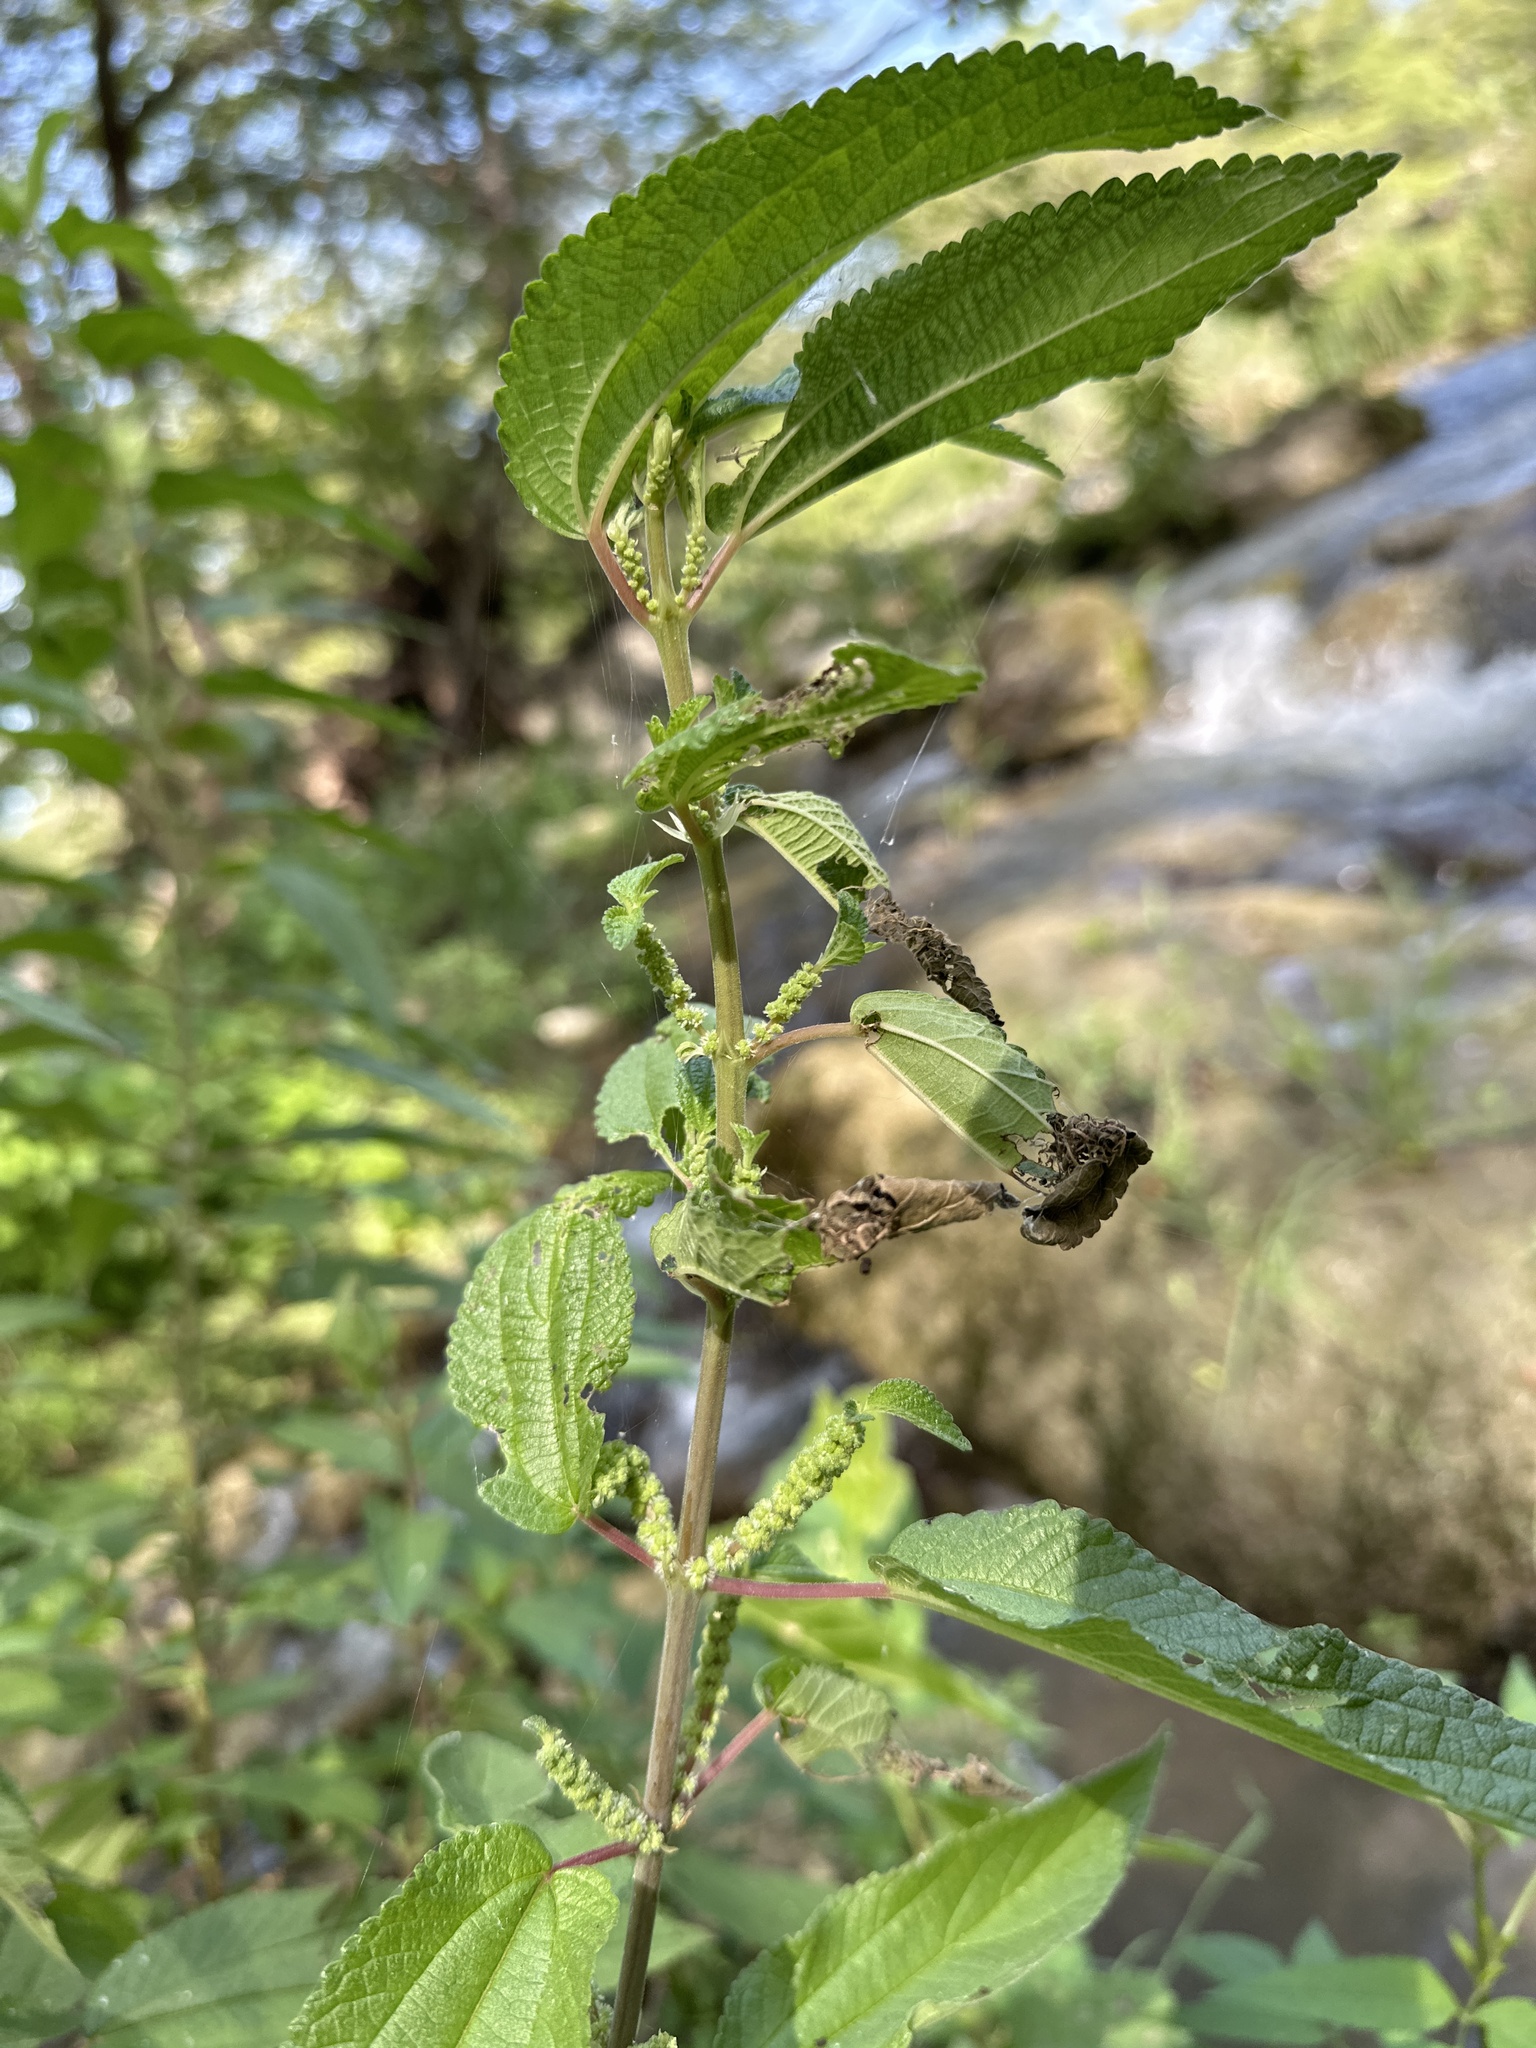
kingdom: Plantae
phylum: Tracheophyta
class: Magnoliopsida
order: Rosales
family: Urticaceae
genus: Boehmeria
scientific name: Boehmeria cylindrica
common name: Bog-hemp
